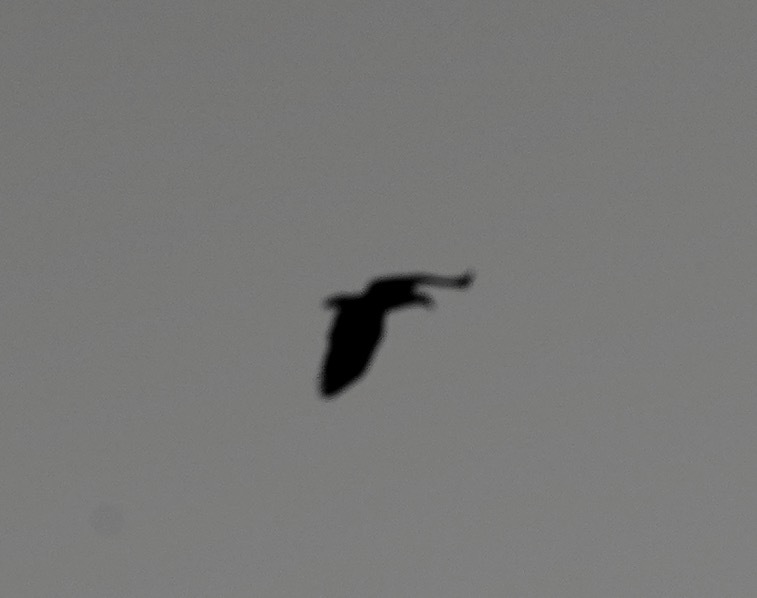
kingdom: Animalia
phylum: Chordata
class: Aves
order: Accipitriformes
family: Accipitridae
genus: Haliaeetus
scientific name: Haliaeetus leucocephalus
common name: Bald eagle
